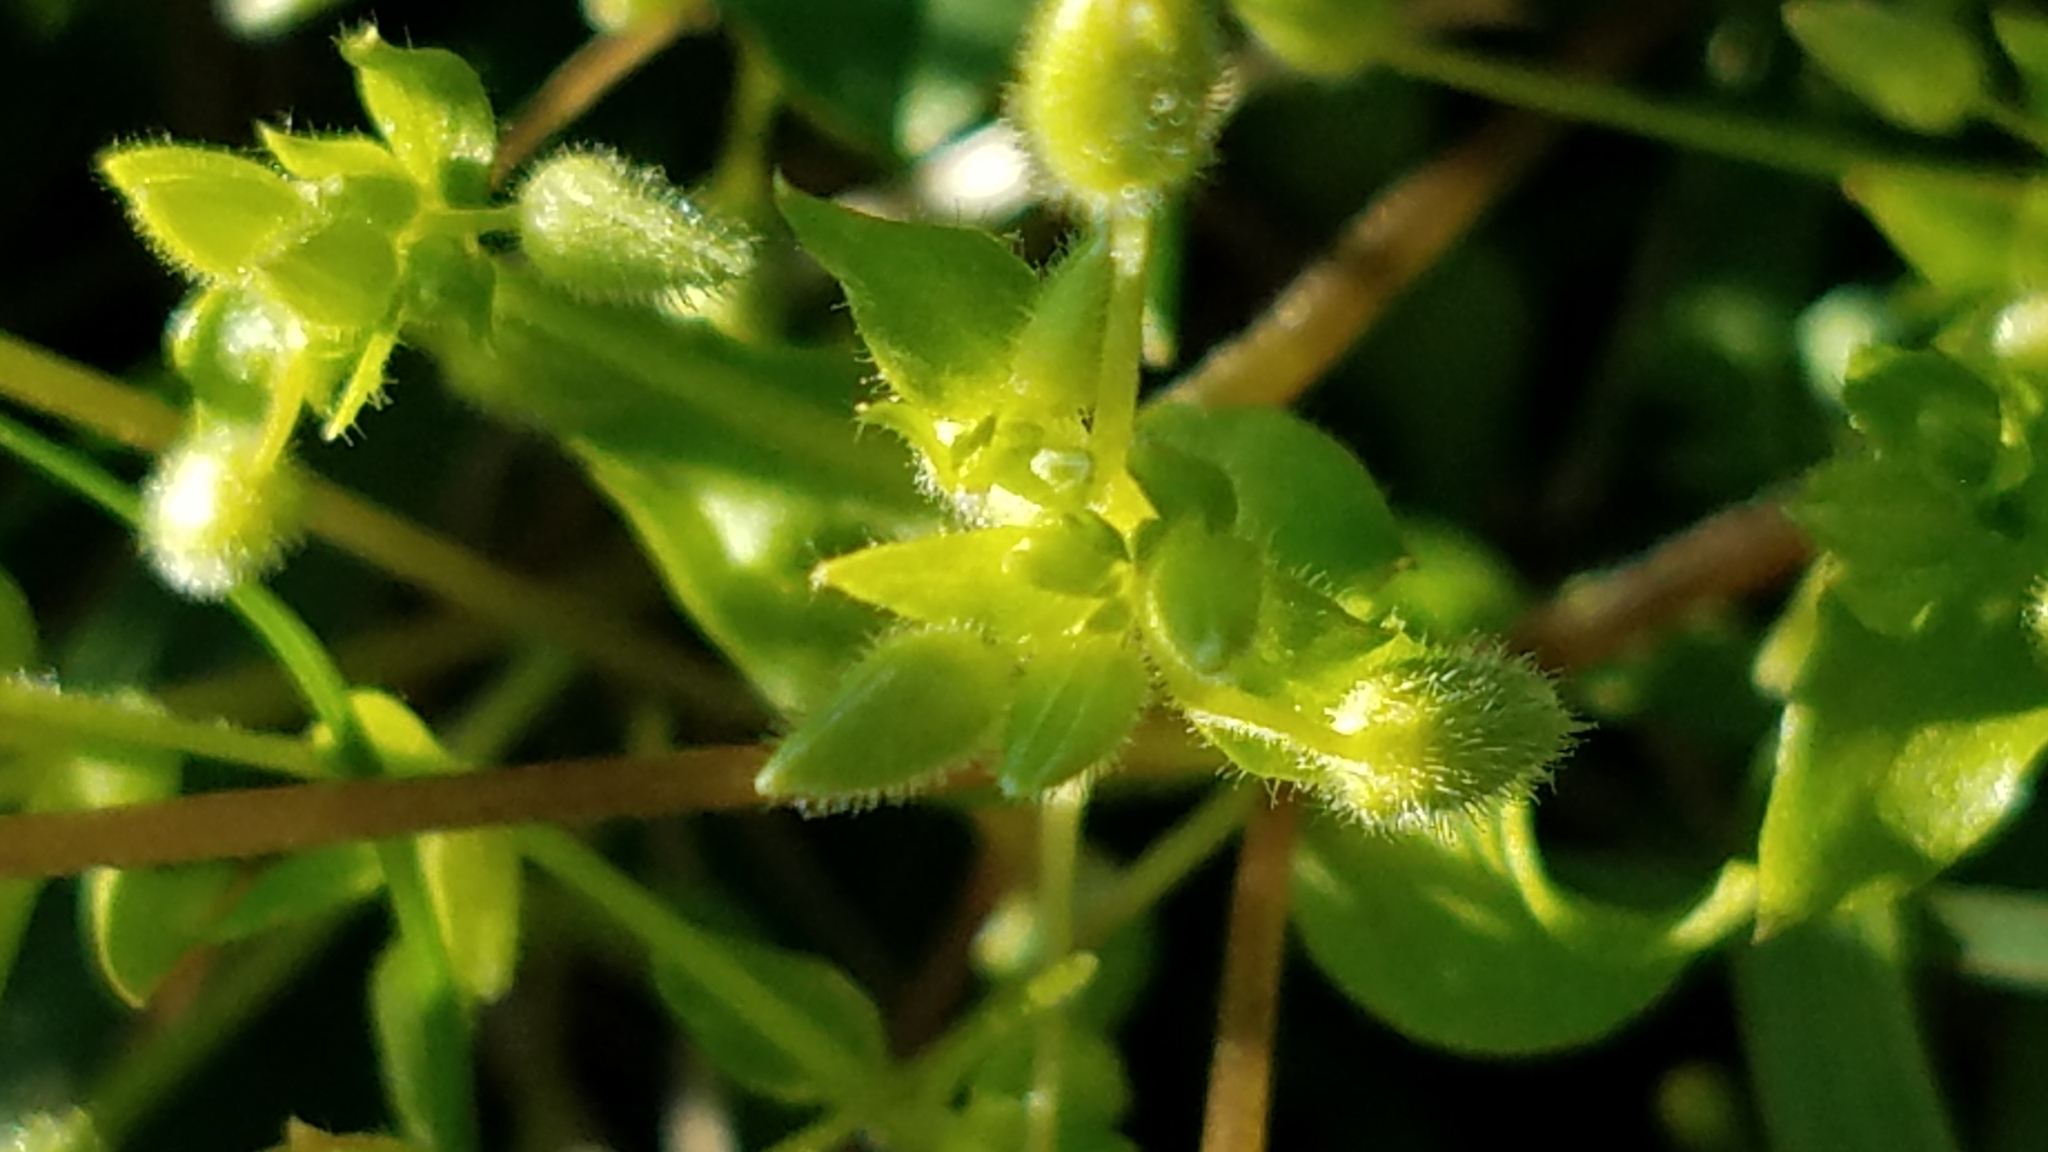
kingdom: Plantae
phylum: Tracheophyta
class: Magnoliopsida
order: Caryophyllales
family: Caryophyllaceae
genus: Stellaria
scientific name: Stellaria media
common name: Common chickweed
